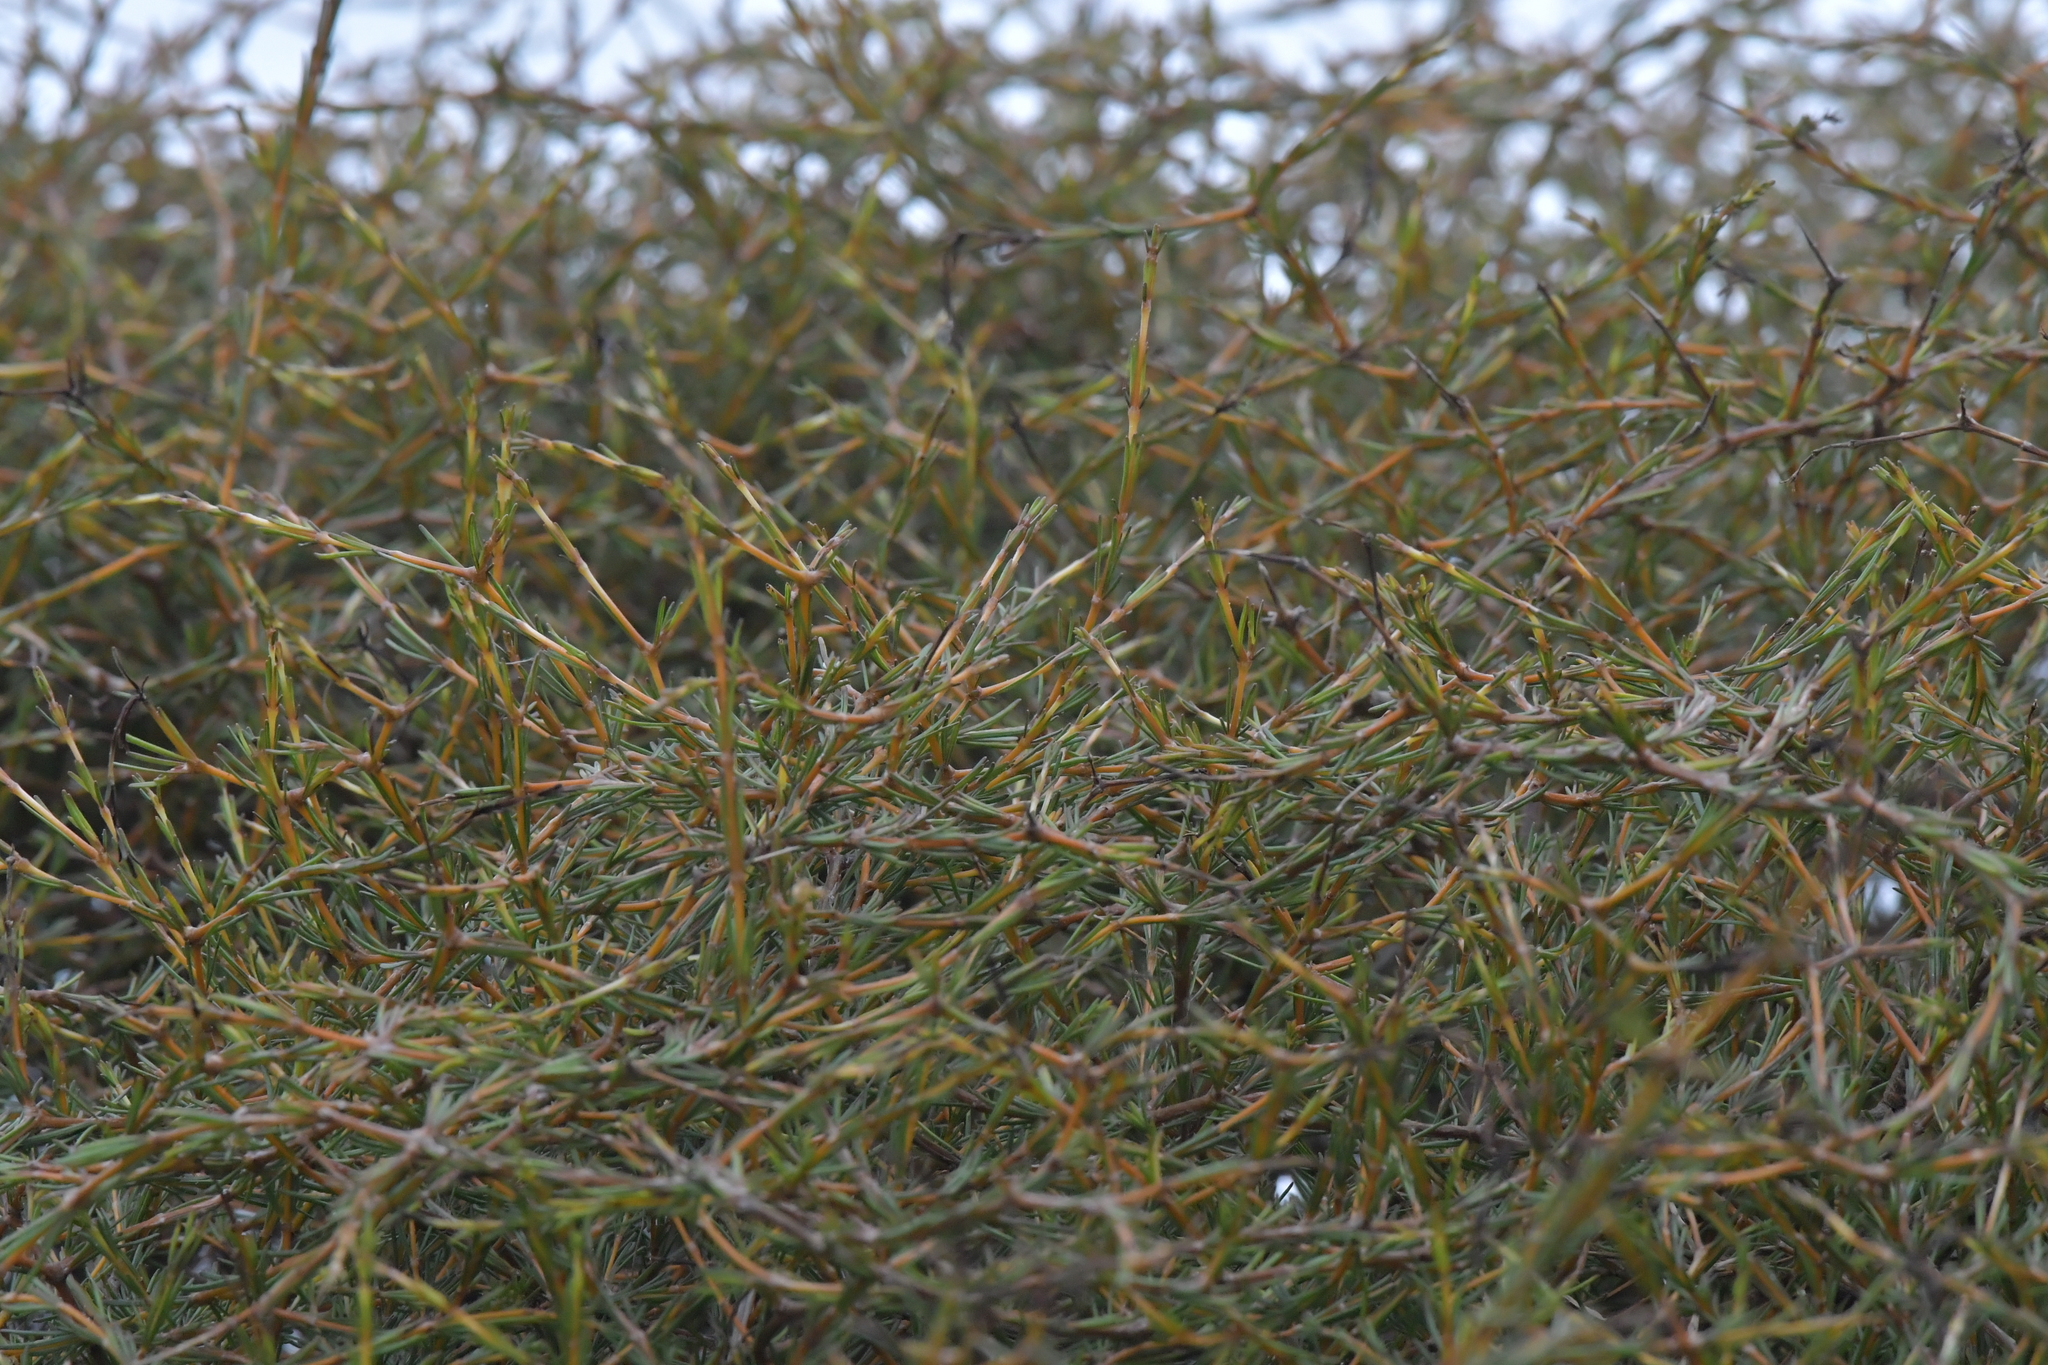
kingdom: Plantae
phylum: Tracheophyta
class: Magnoliopsida
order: Gentianales
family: Rubiaceae
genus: Coprosma
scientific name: Coprosma acerosa
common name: Sand coprosma
